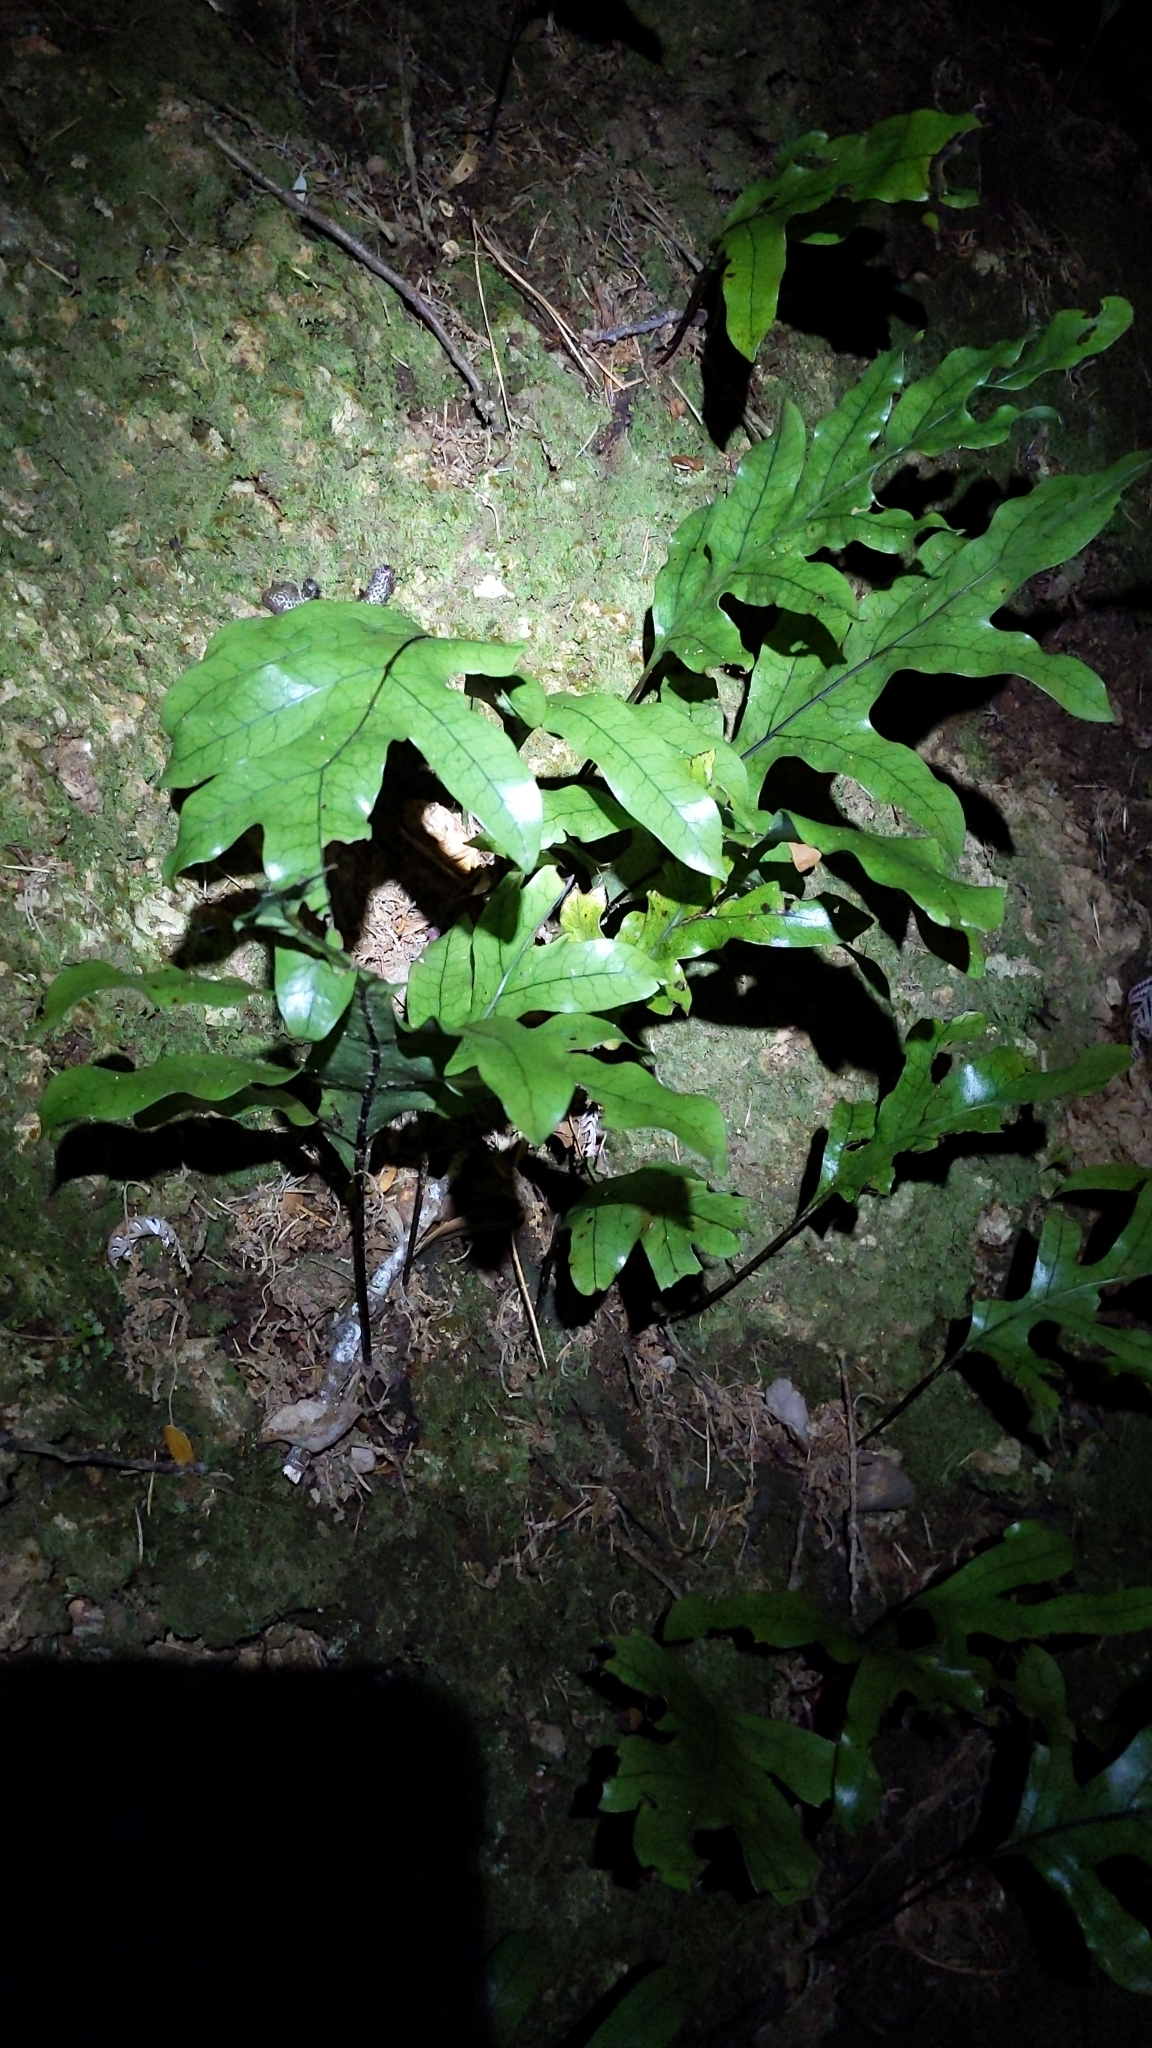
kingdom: Plantae
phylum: Tracheophyta
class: Polypodiopsida
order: Polypodiales
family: Polypodiaceae
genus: Lecanopteris
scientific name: Lecanopteris pustulata
